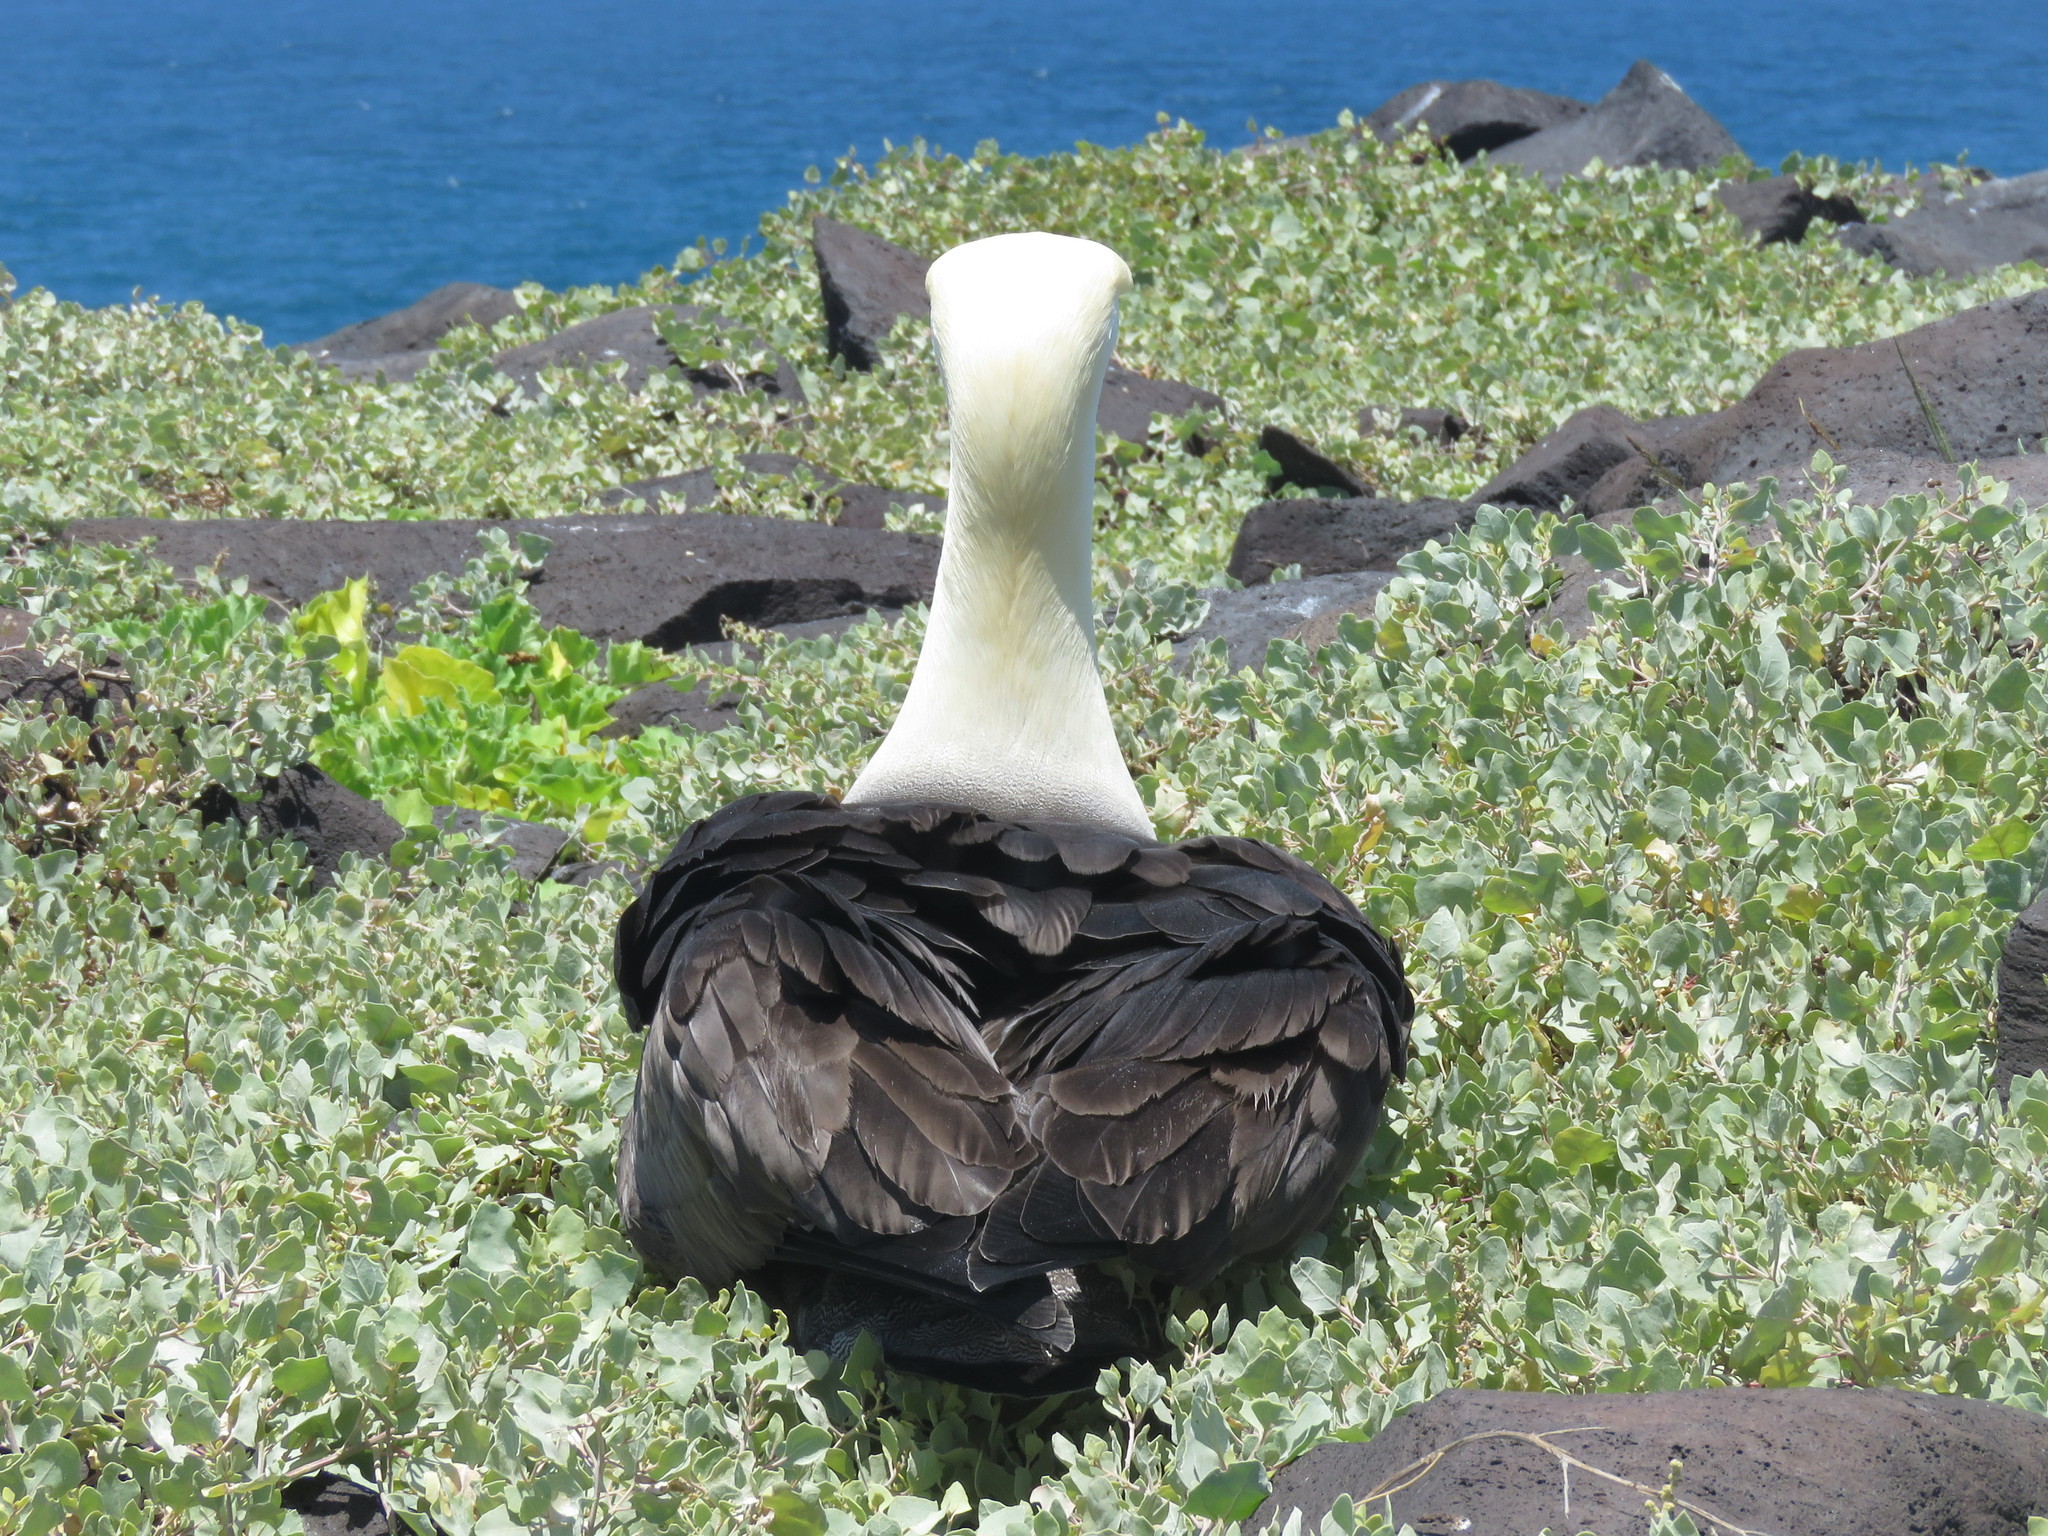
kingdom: Animalia
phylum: Chordata
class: Aves
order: Procellariiformes
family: Diomedeidae
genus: Phoebastria
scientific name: Phoebastria irrorata
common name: Waved albatross
